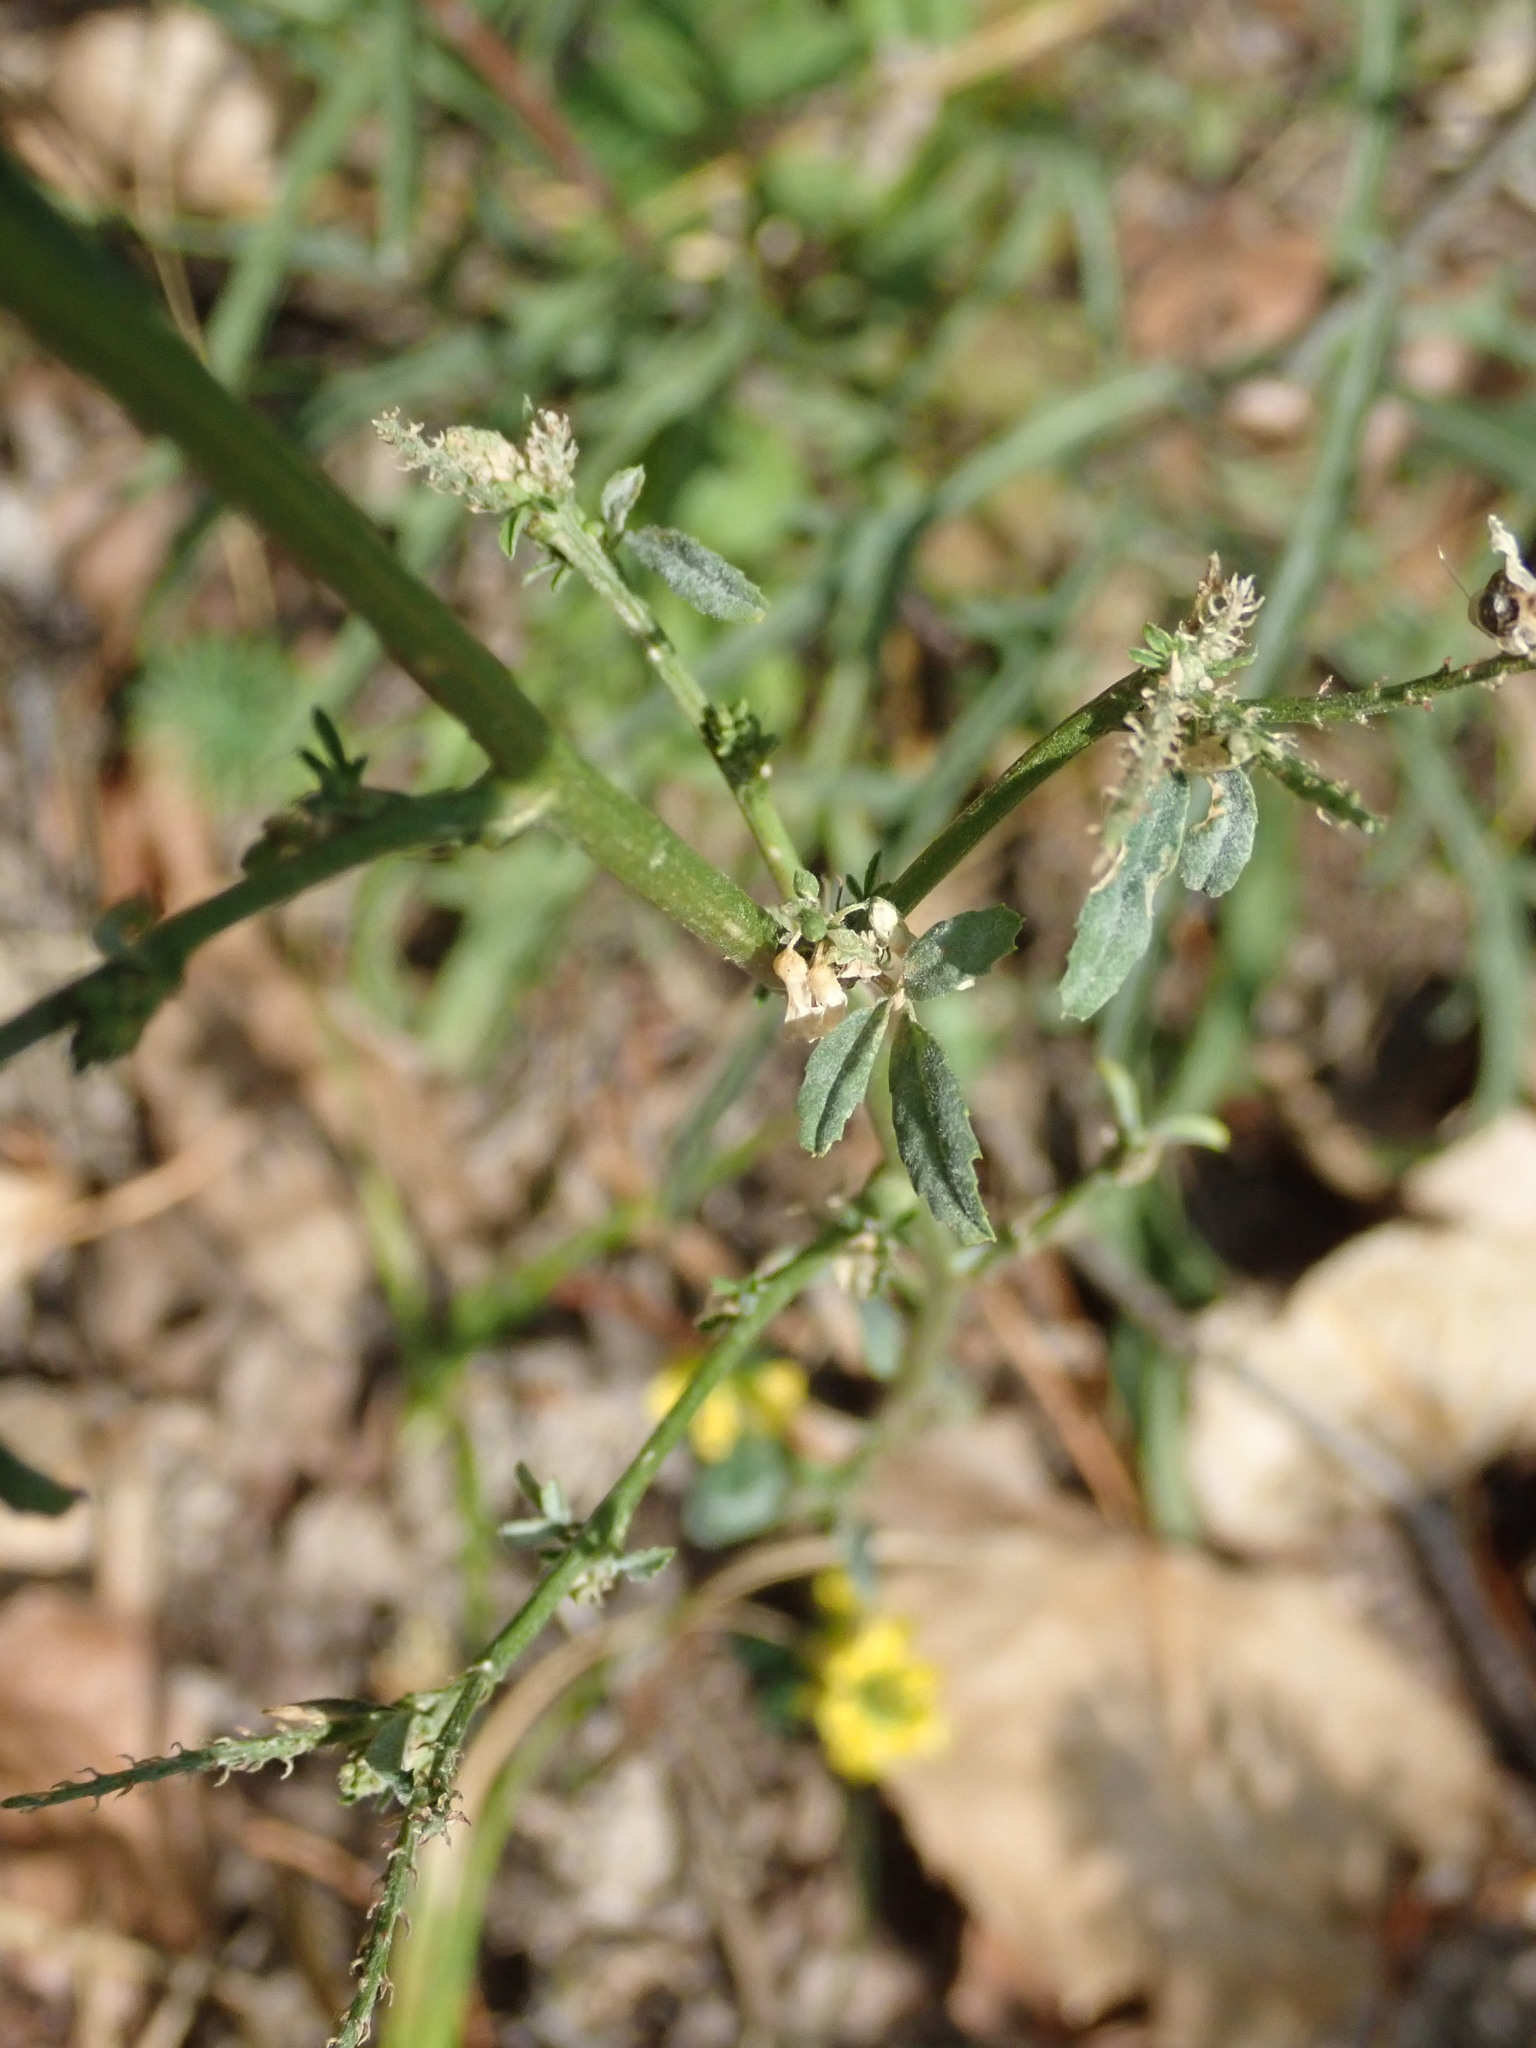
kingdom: Plantae
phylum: Tracheophyta
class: Magnoliopsida
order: Fabales
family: Fabaceae
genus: Melilotus
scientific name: Melilotus officinalis
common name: Sweetclover
